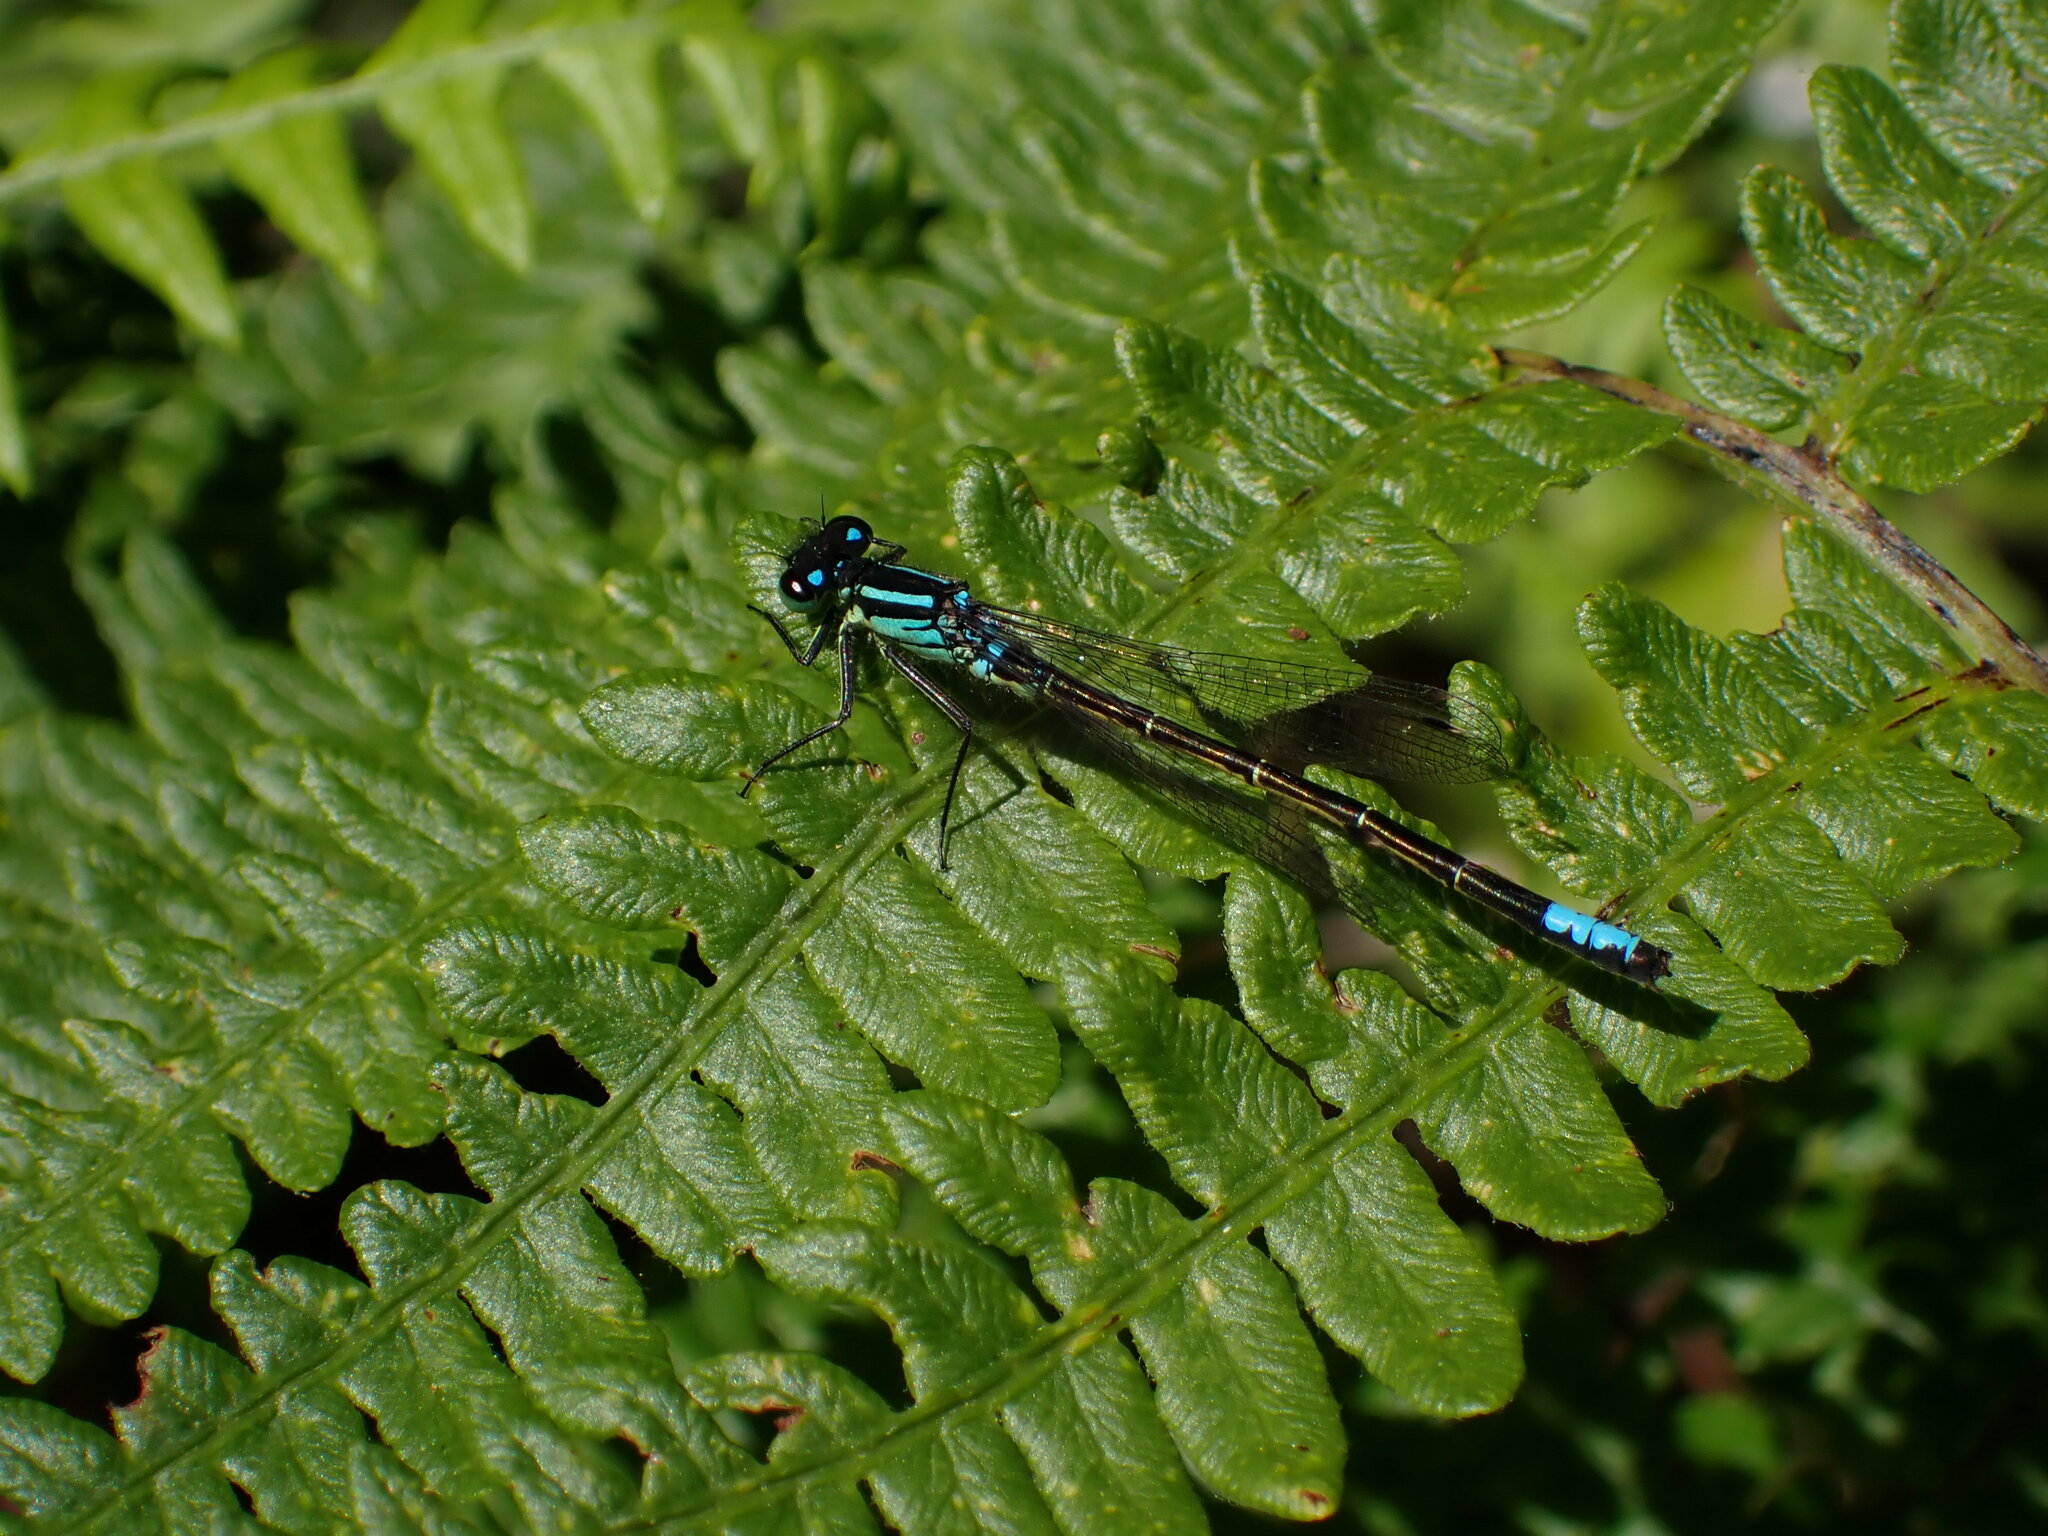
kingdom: Animalia
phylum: Arthropoda
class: Insecta
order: Odonata
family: Coenagrionidae
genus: Ischnura
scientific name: Ischnura erratica
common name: Swift forktail
